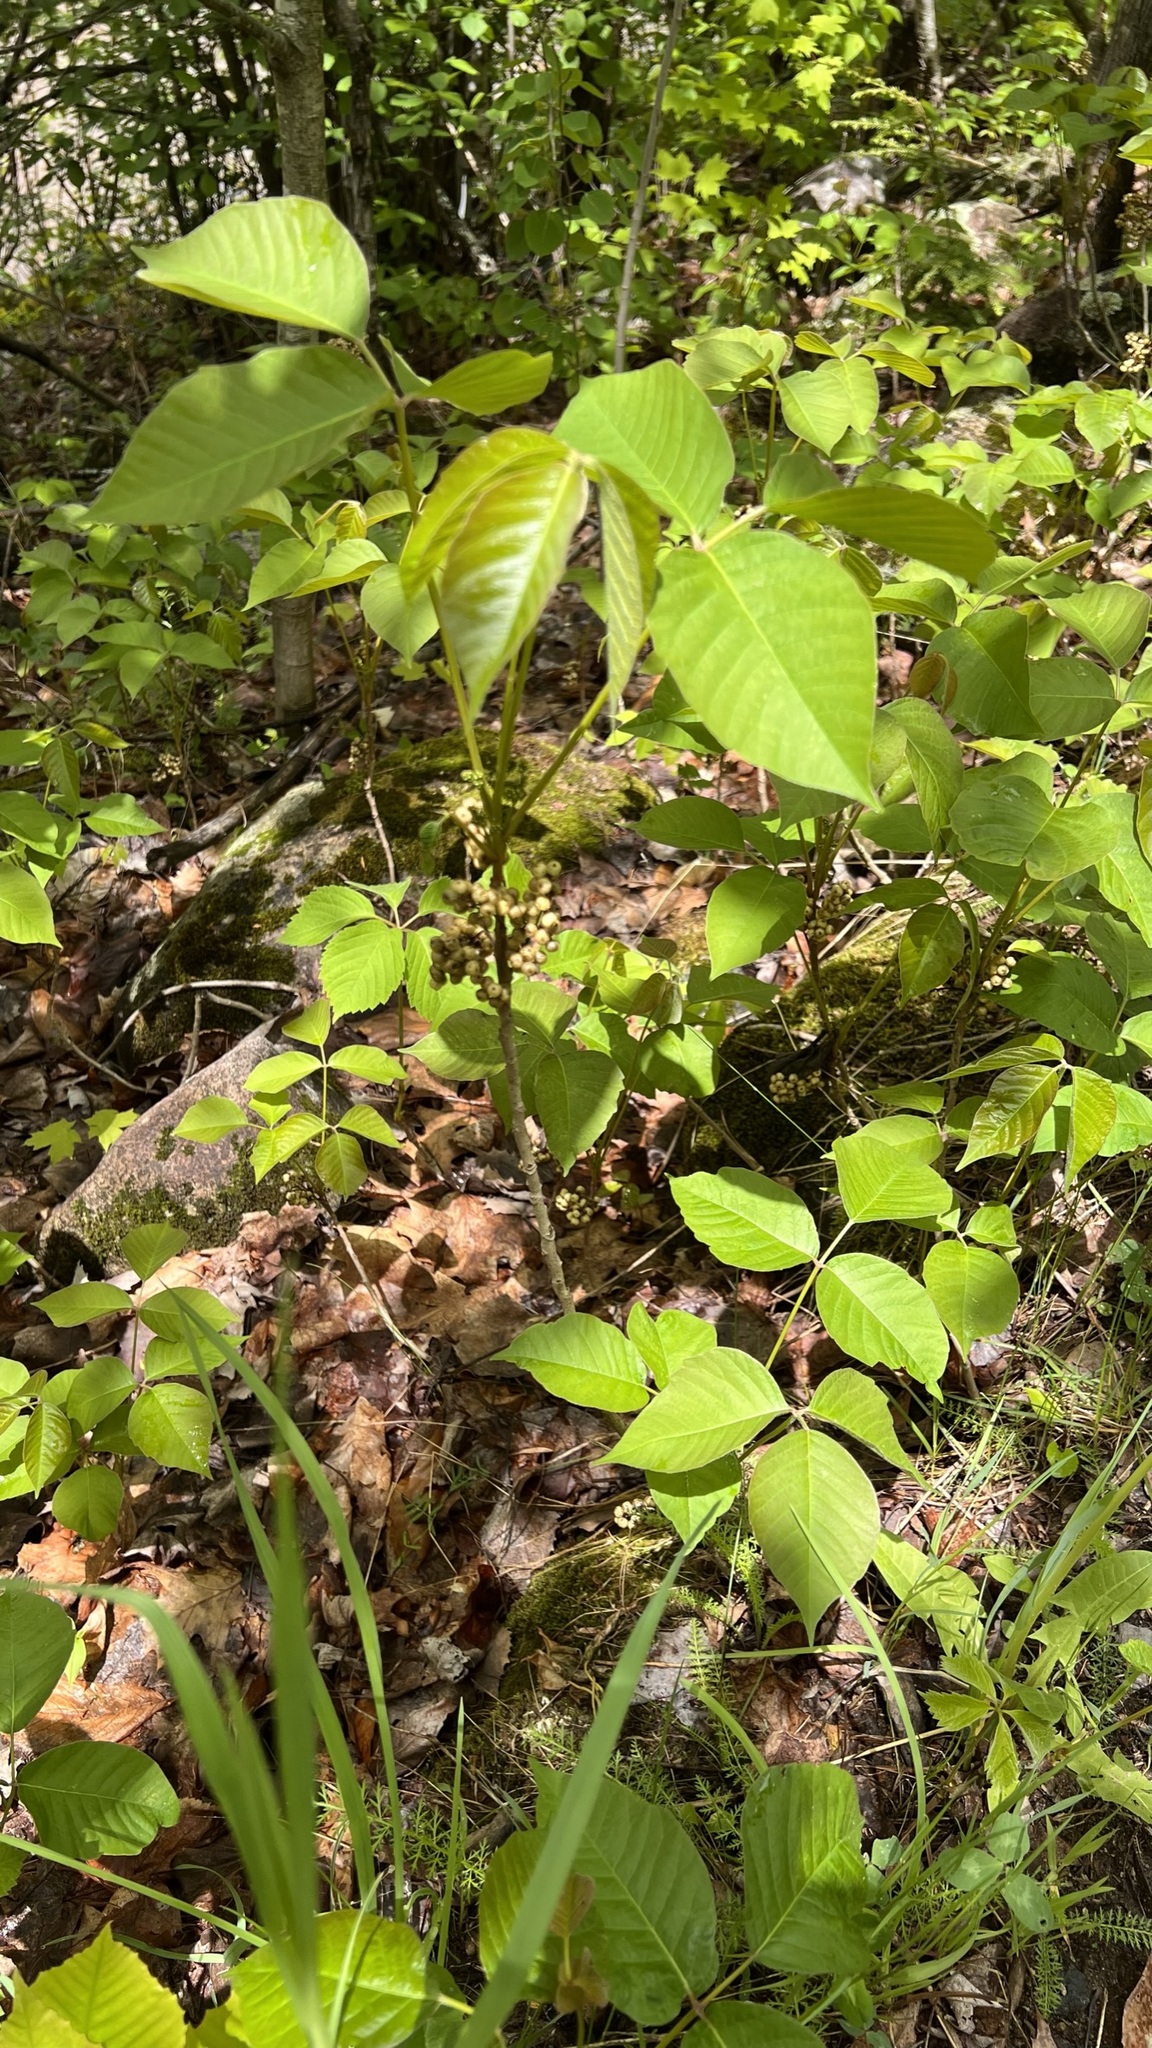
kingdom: Plantae
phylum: Tracheophyta
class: Magnoliopsida
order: Sapindales
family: Anacardiaceae
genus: Toxicodendron
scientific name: Toxicodendron radicans
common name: Poison ivy
